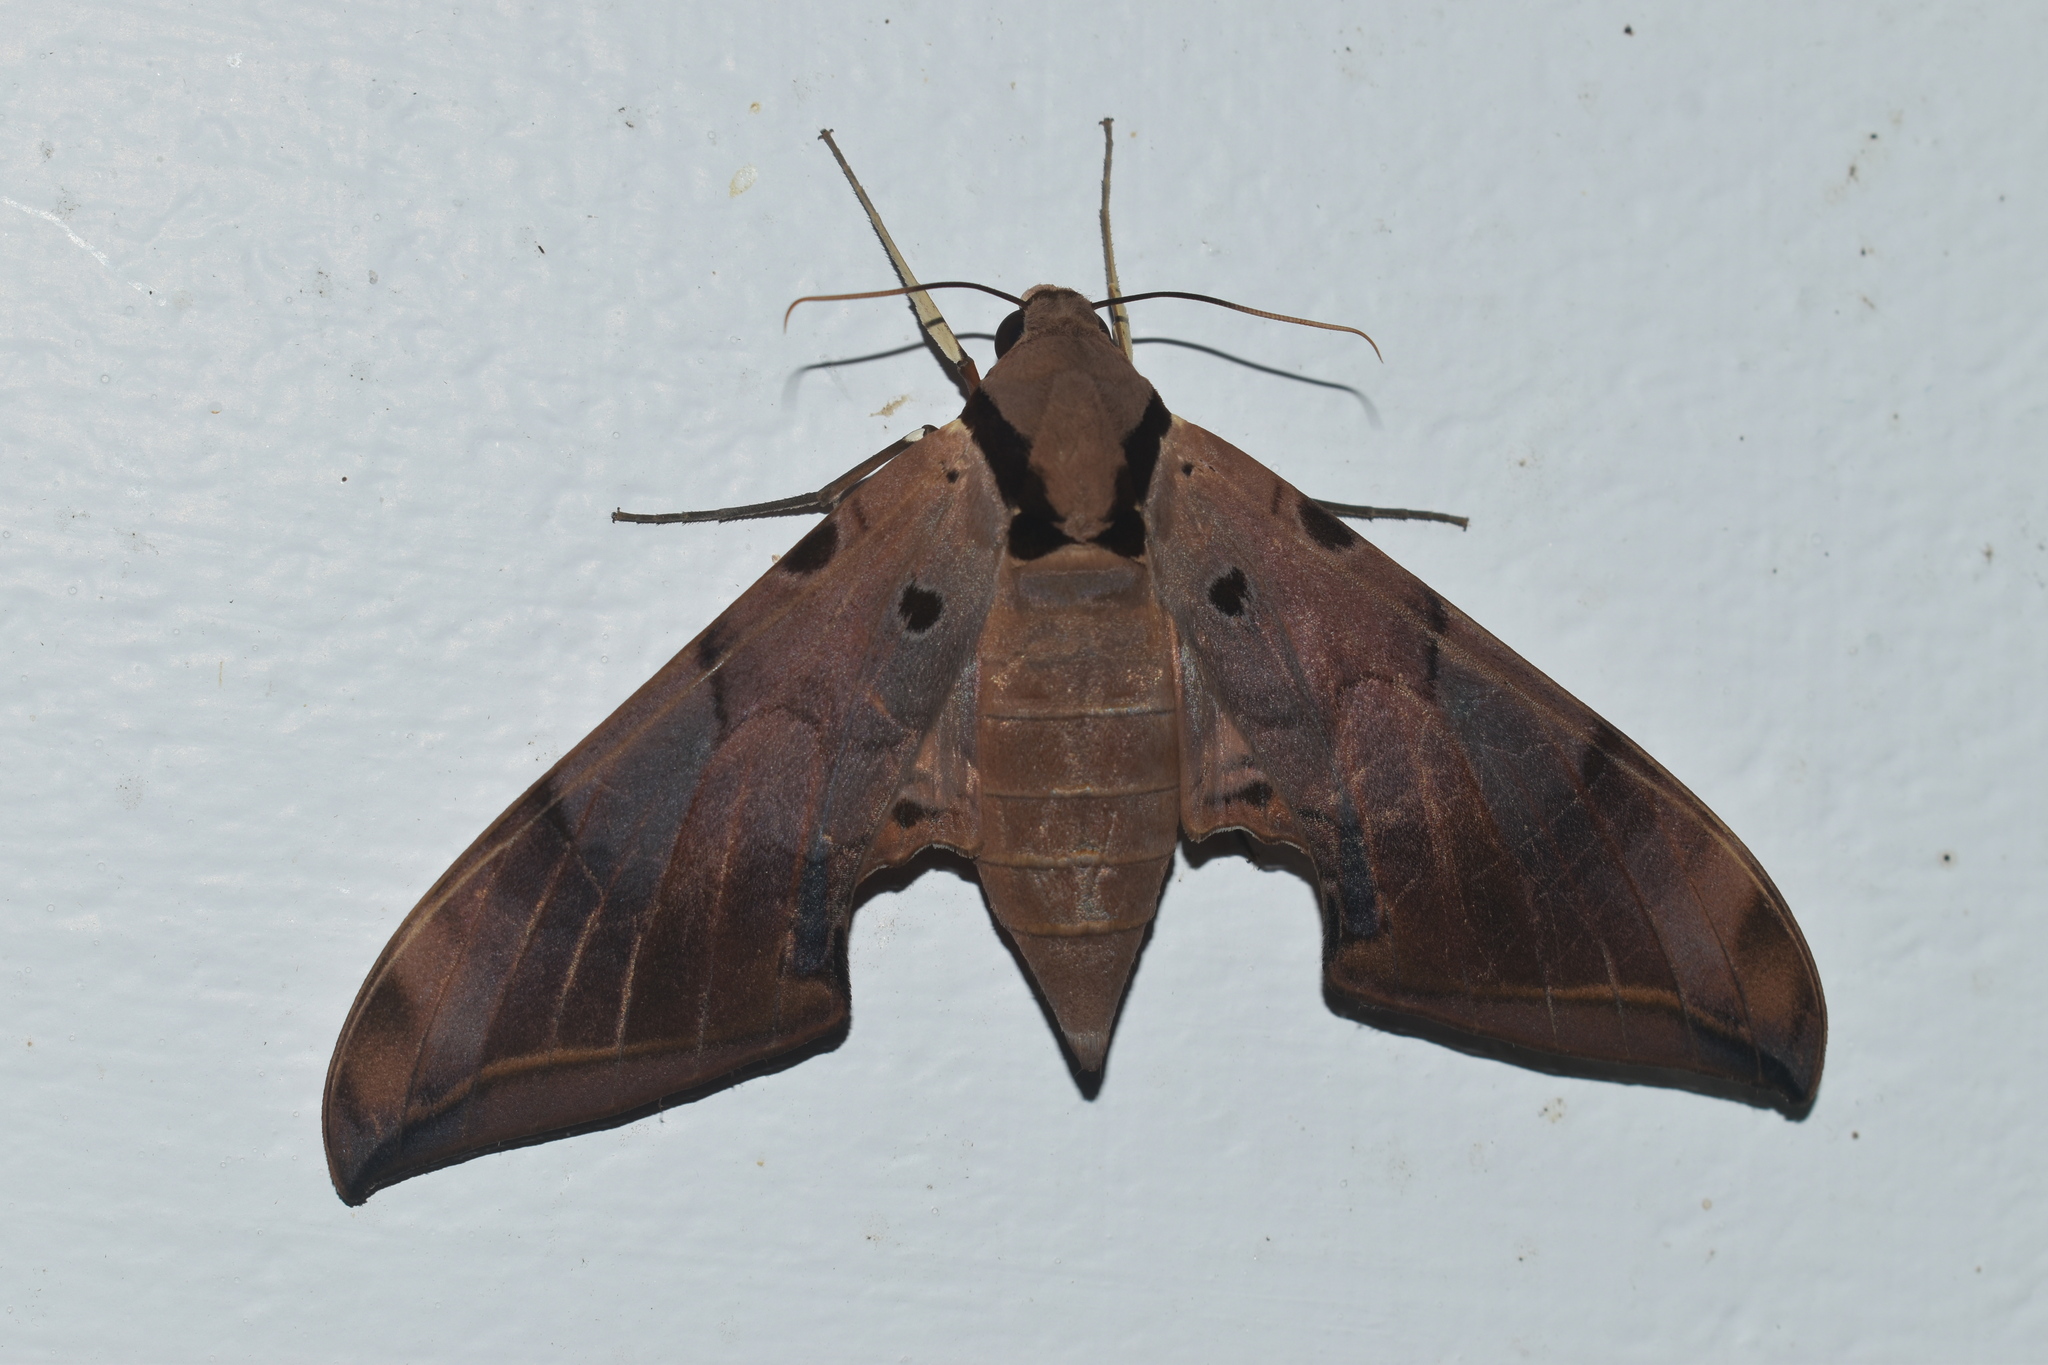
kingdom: Animalia
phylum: Arthropoda
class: Insecta
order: Lepidoptera
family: Sphingidae
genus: Ambulyx
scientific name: Ambulyx belli
